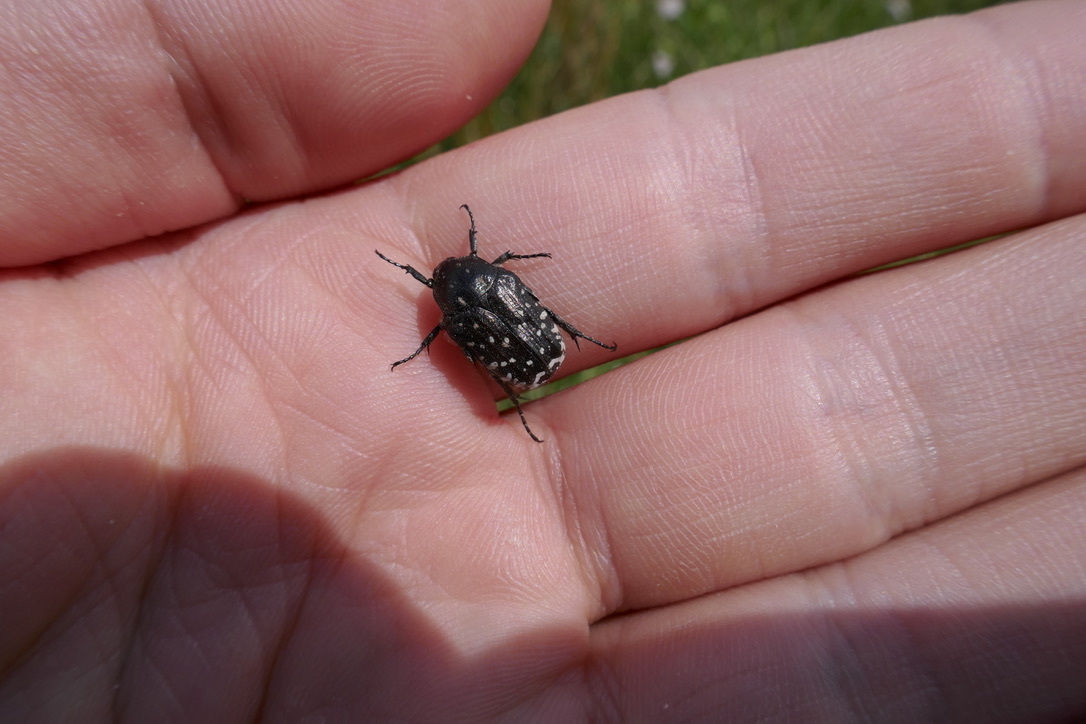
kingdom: Animalia
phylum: Arthropoda
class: Insecta
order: Coleoptera
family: Scarabaeidae
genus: Oxythyrea
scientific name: Oxythyrea funesta
